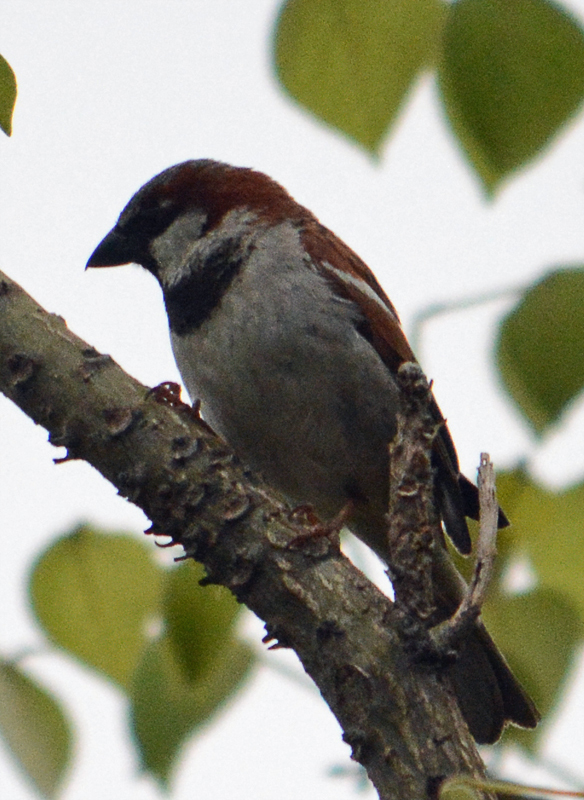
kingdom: Animalia
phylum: Chordata
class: Aves
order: Passeriformes
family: Passeridae
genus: Passer
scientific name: Passer domesticus
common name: House sparrow
